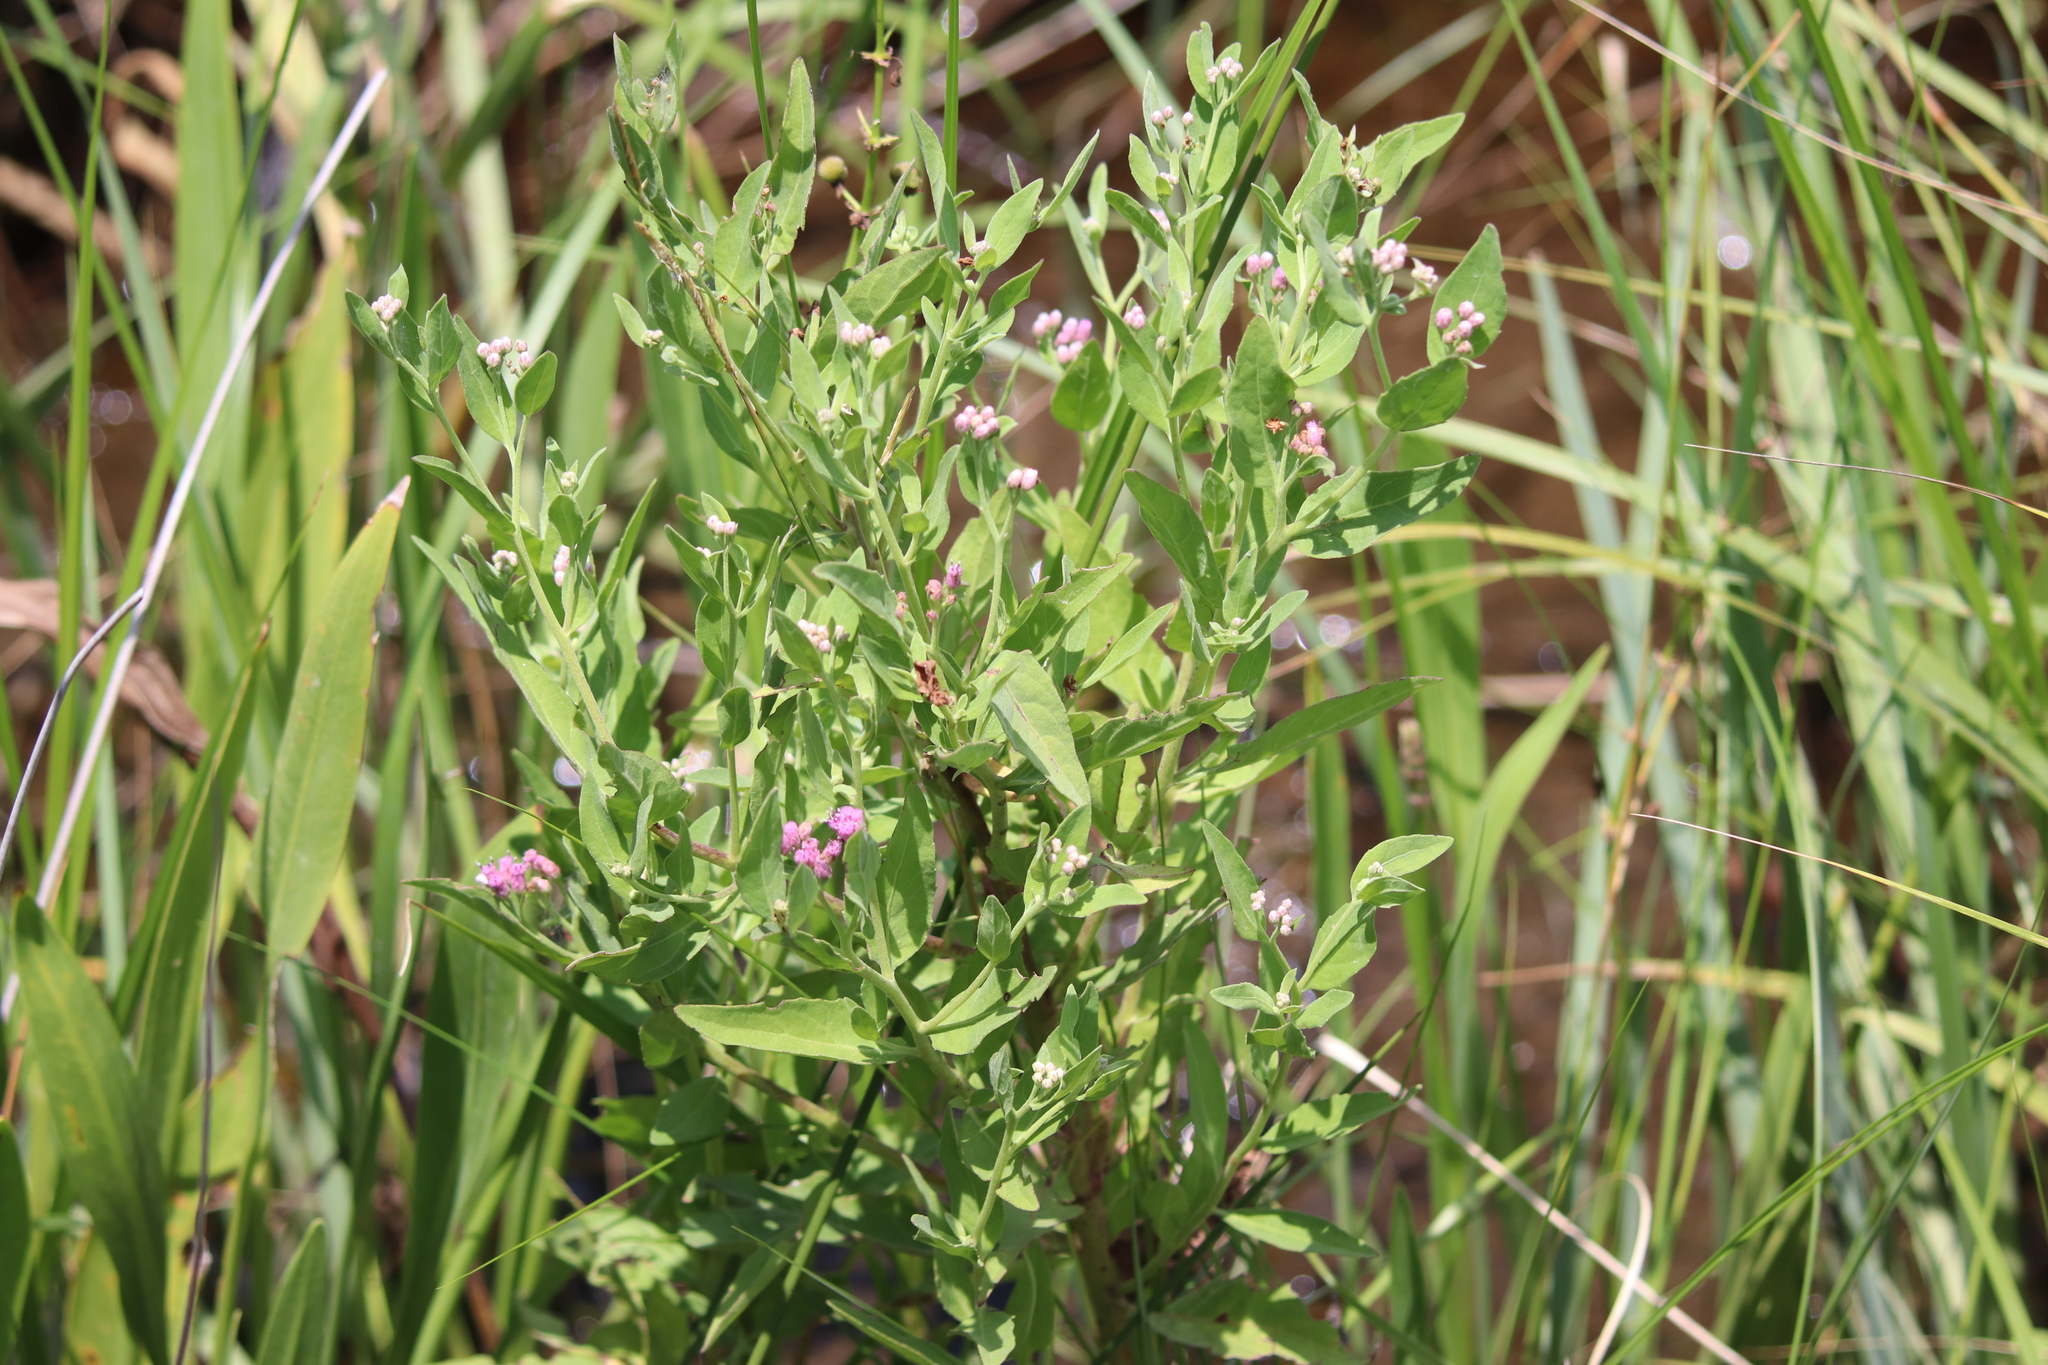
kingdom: Plantae
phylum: Tracheophyta
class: Magnoliopsida
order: Asterales
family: Asteraceae
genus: Pluchea
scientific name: Pluchea odorata
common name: Saltmarsh fleabane
